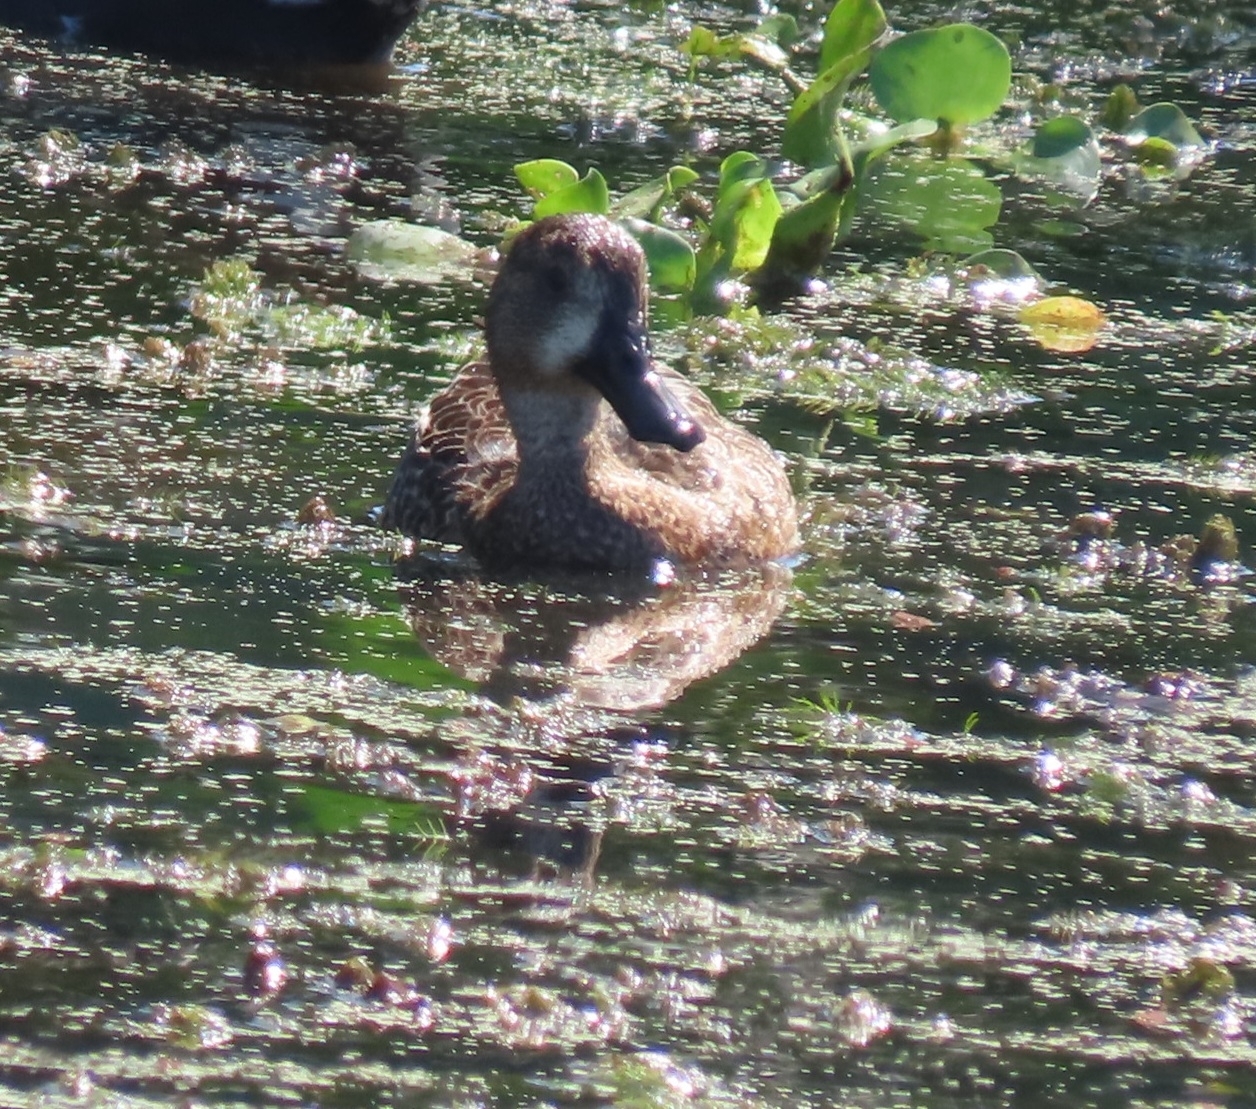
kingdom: Animalia
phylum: Chordata
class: Aves
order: Anseriformes
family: Anatidae
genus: Spatula
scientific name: Spatula discors
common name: Blue-winged teal
